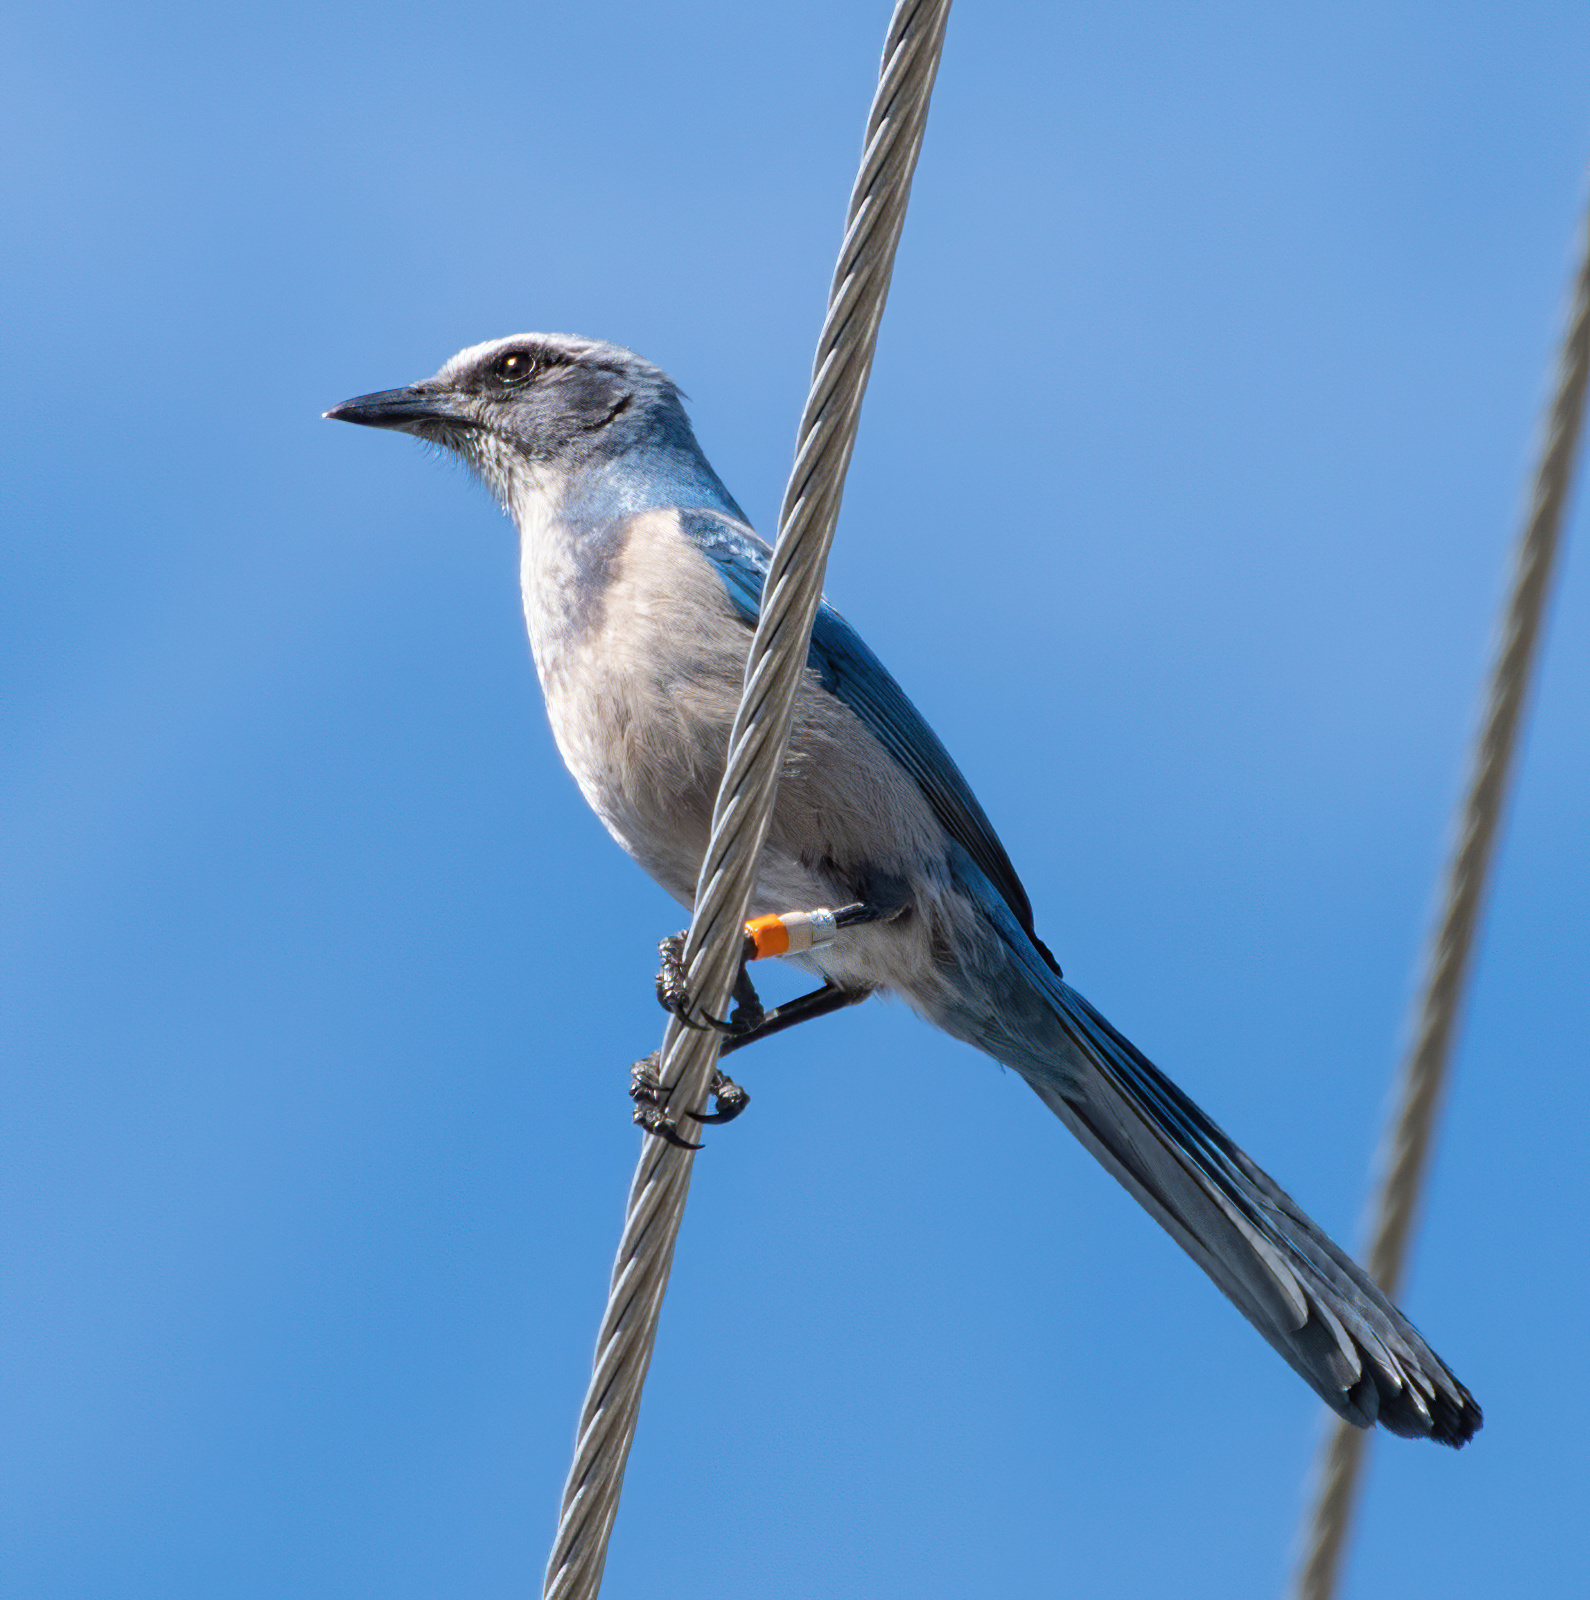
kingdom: Animalia
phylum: Chordata
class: Aves
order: Passeriformes
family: Corvidae
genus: Aphelocoma
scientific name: Aphelocoma coerulescens
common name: Florida scrub jay
